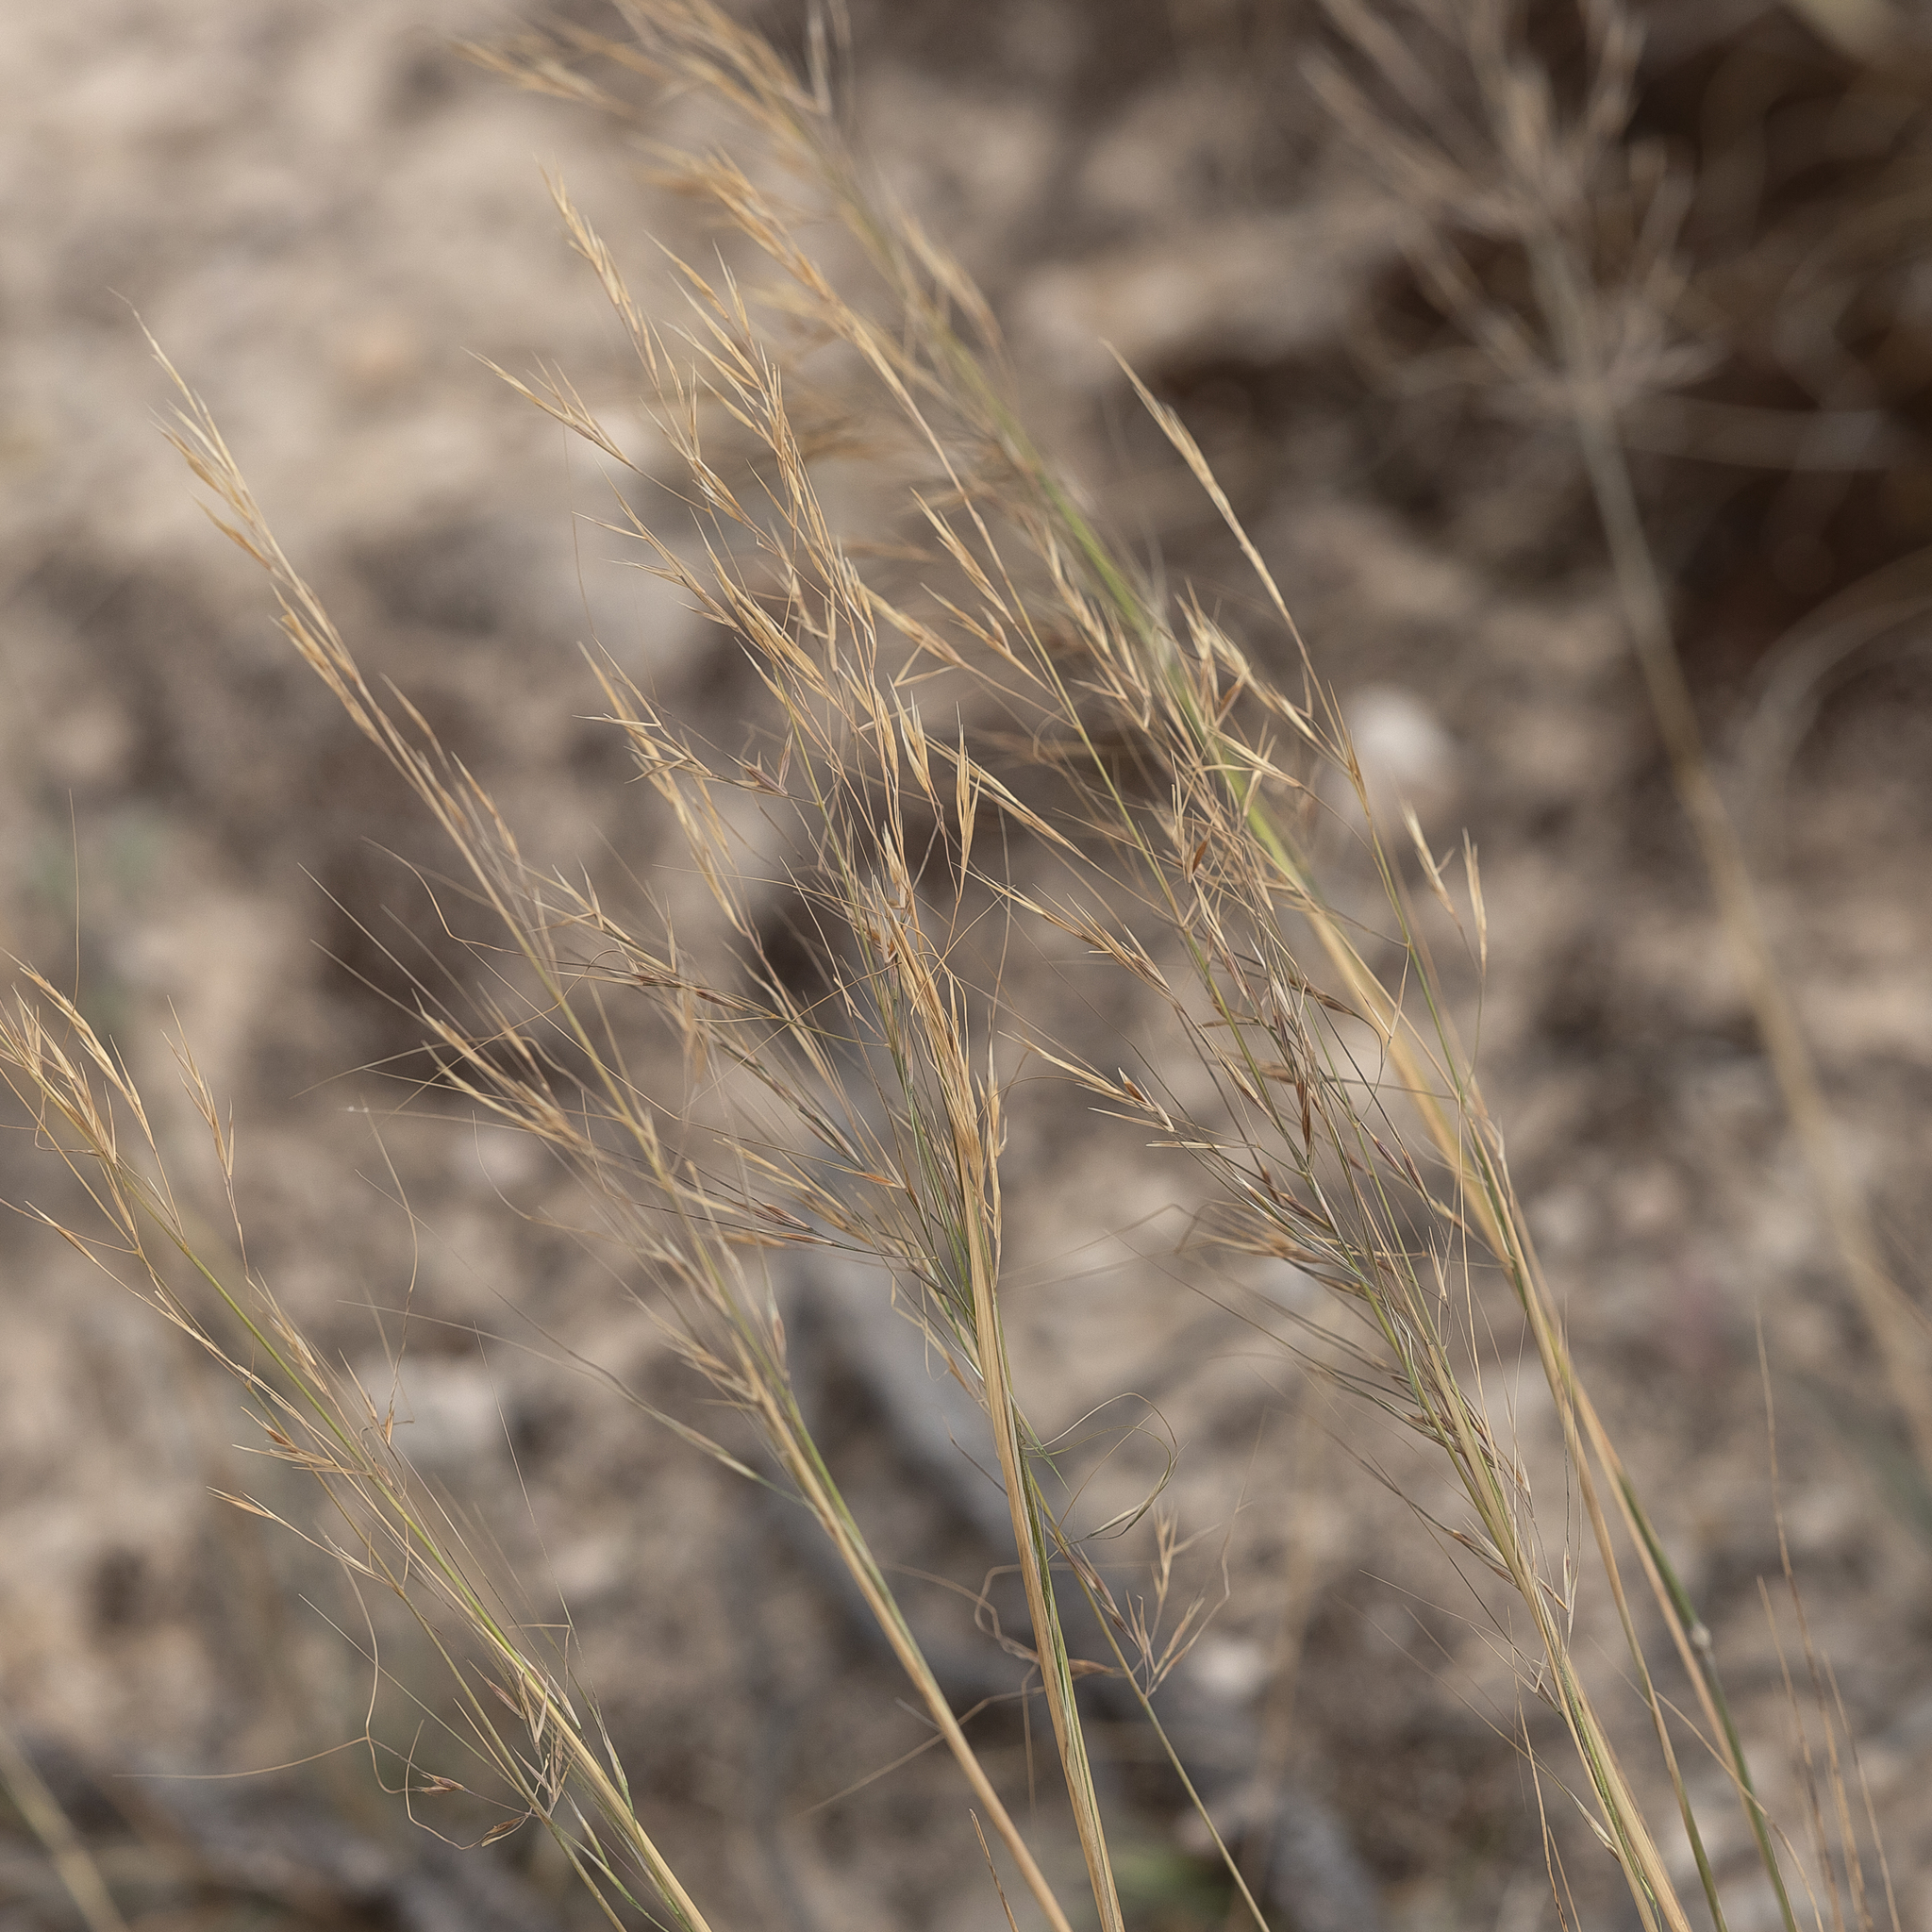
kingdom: Plantae
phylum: Tracheophyta
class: Liliopsida
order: Poales
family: Poaceae
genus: Austrostipa
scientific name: Austrostipa puberula
